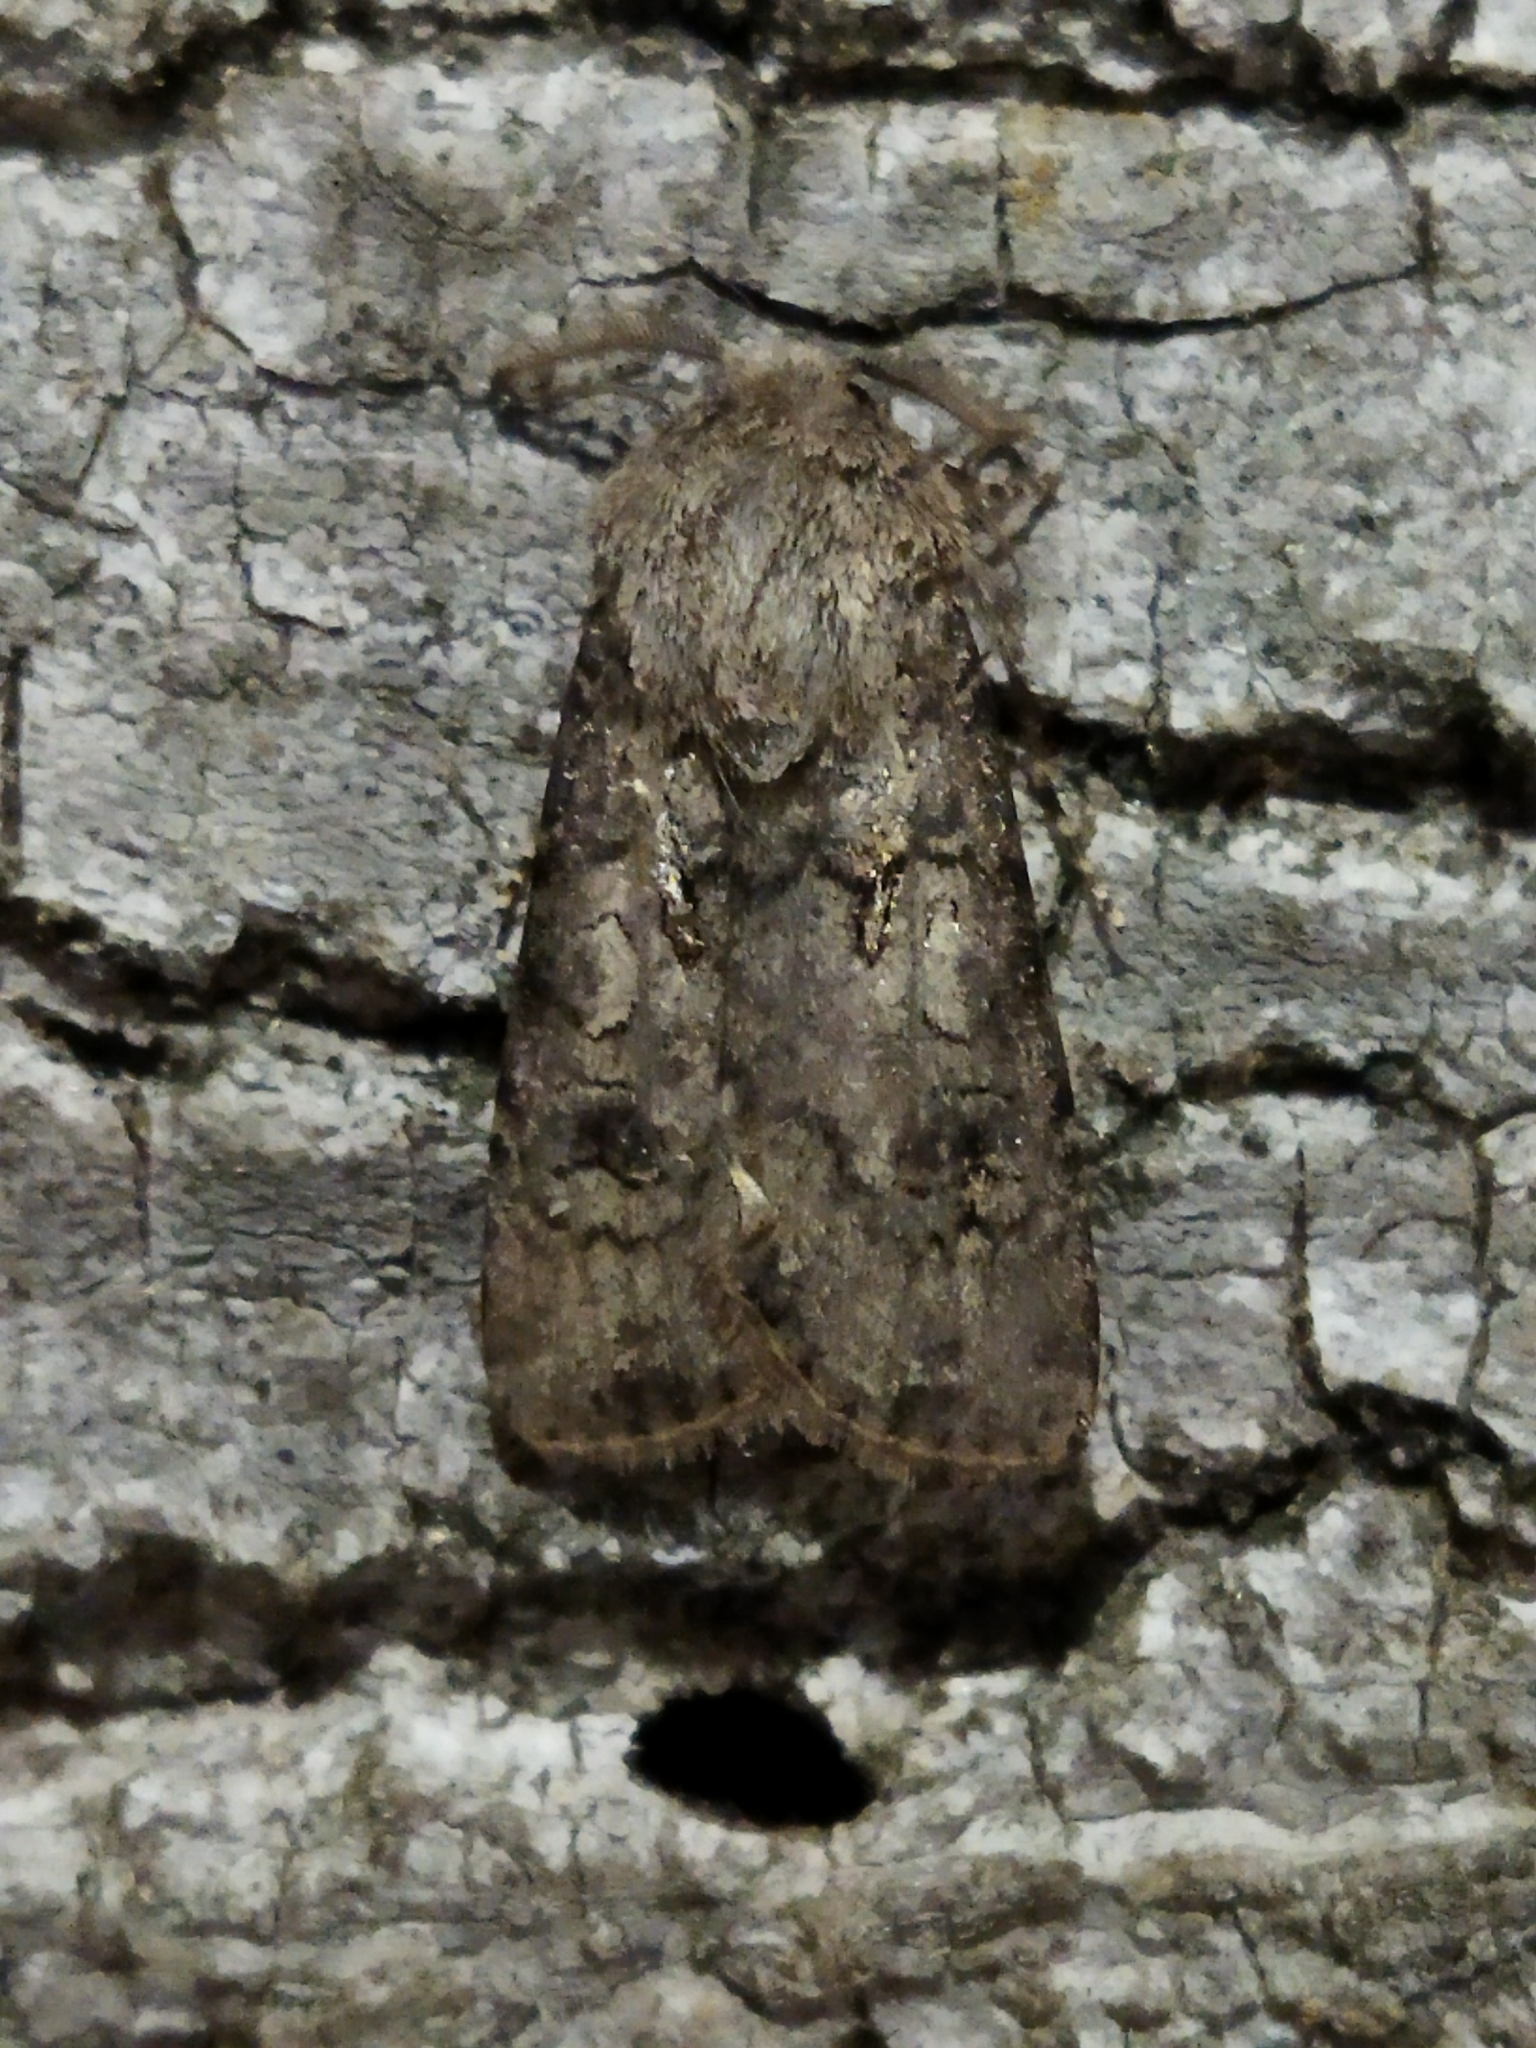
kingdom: Animalia
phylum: Arthropoda
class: Insecta
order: Lepidoptera
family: Noctuidae
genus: Agrotis
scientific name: Agrotis segetum
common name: Turnip moth
